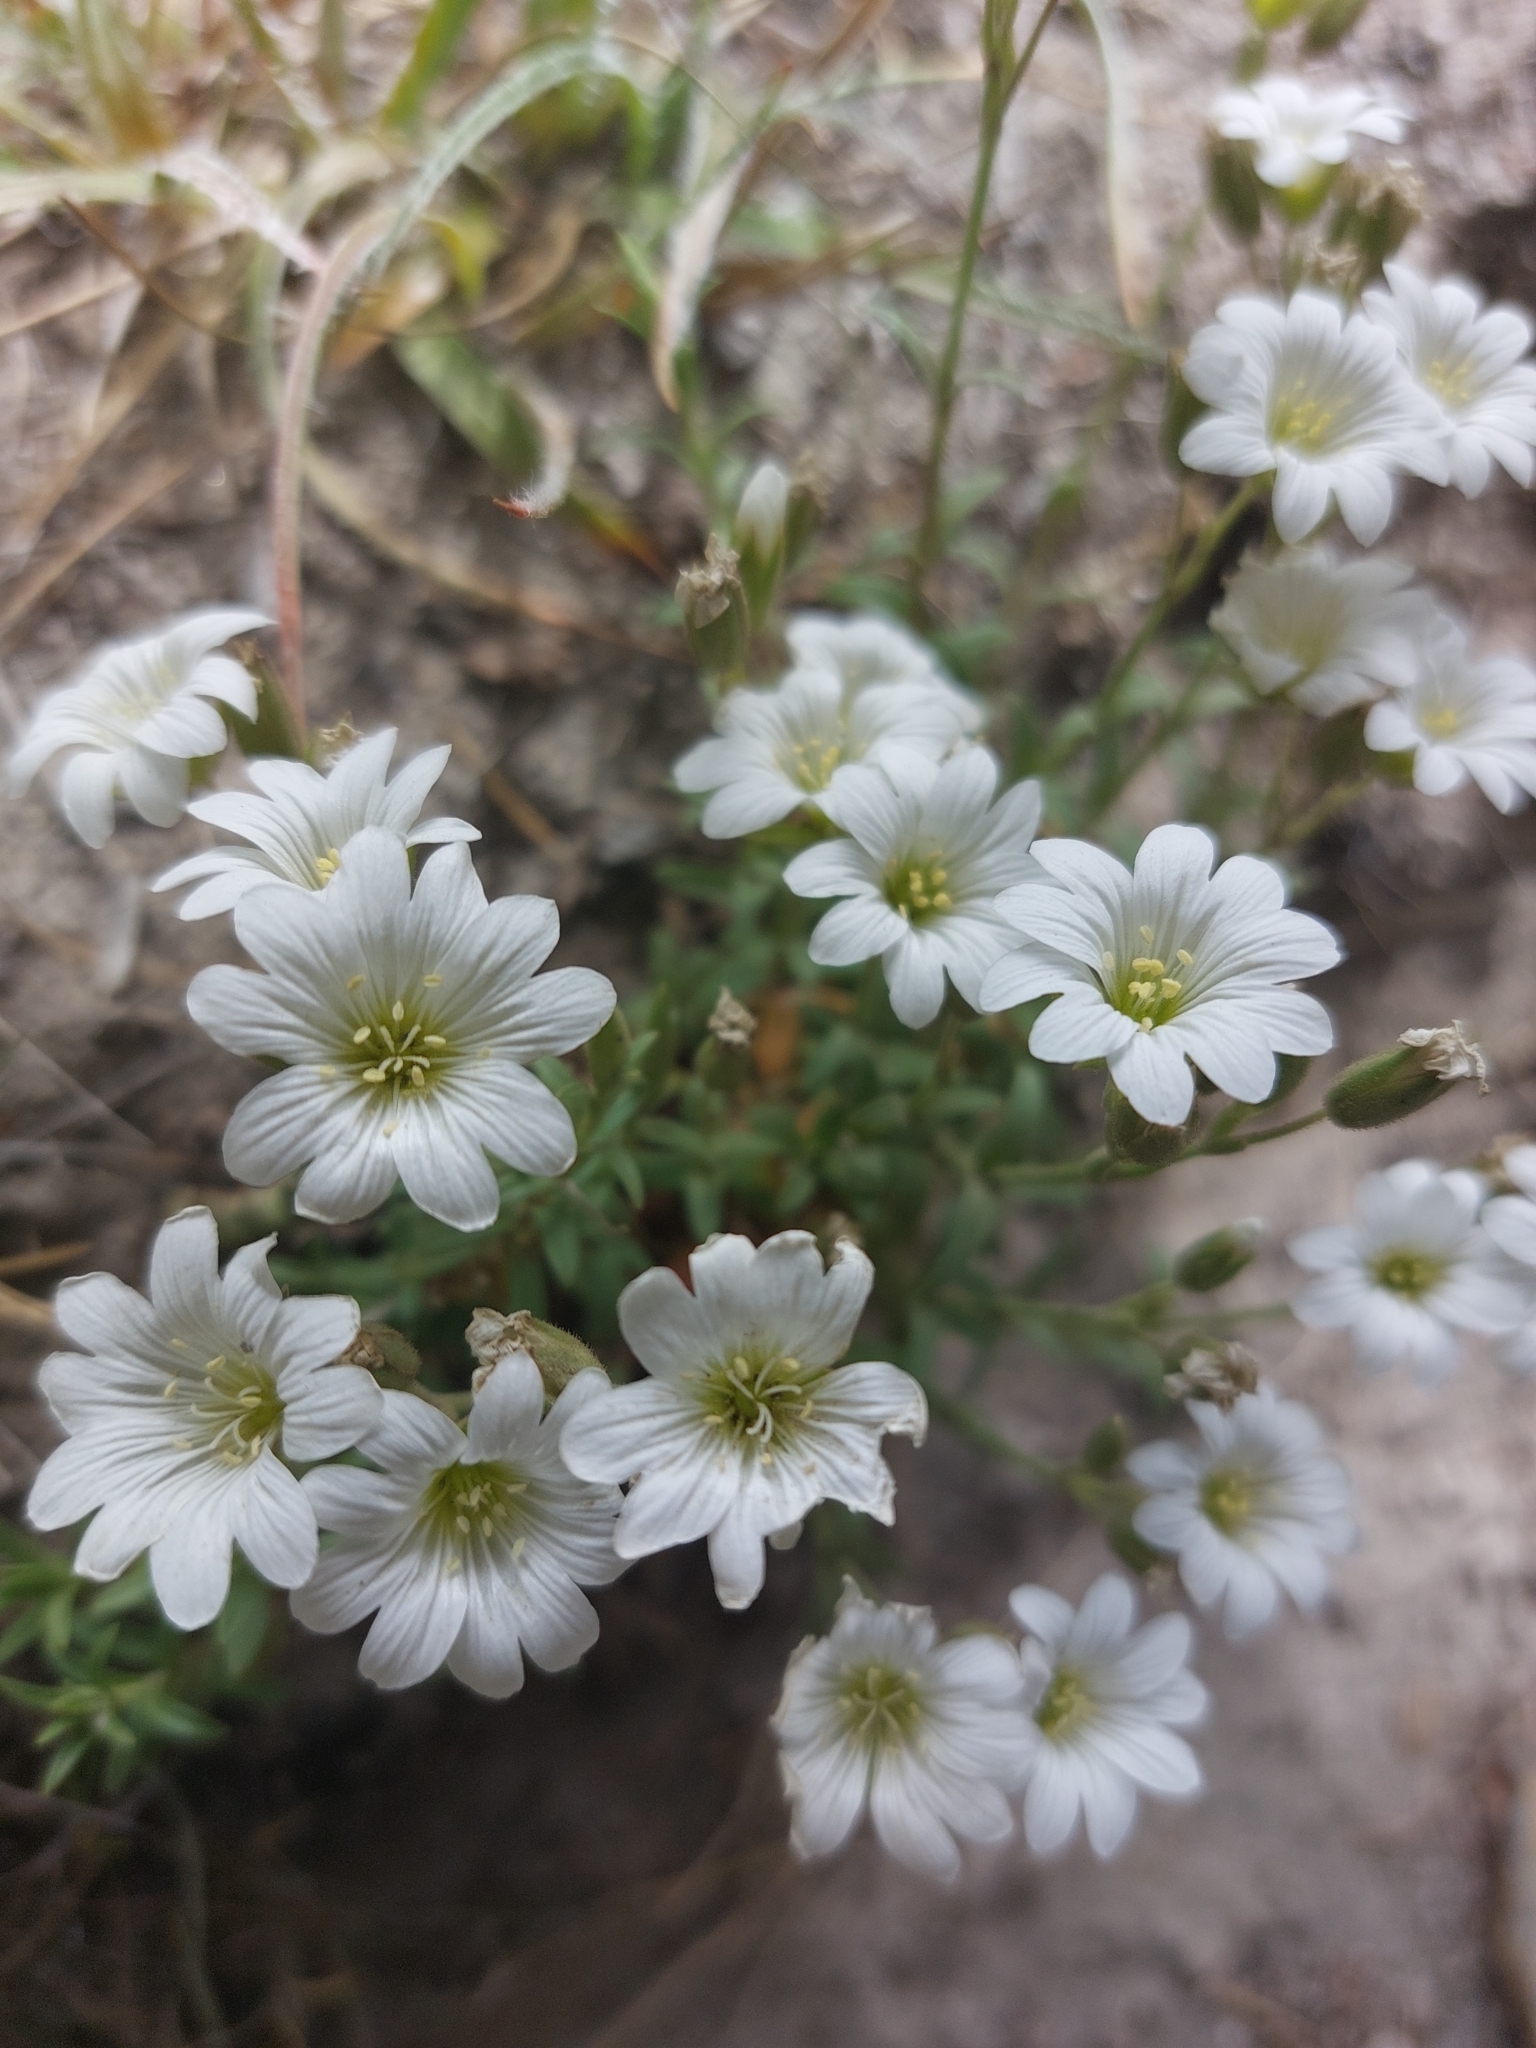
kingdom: Plantae
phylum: Tracheophyta
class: Magnoliopsida
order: Caryophyllales
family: Caryophyllaceae
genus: Cerastium
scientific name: Cerastium arvense
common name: Field mouse-ear
